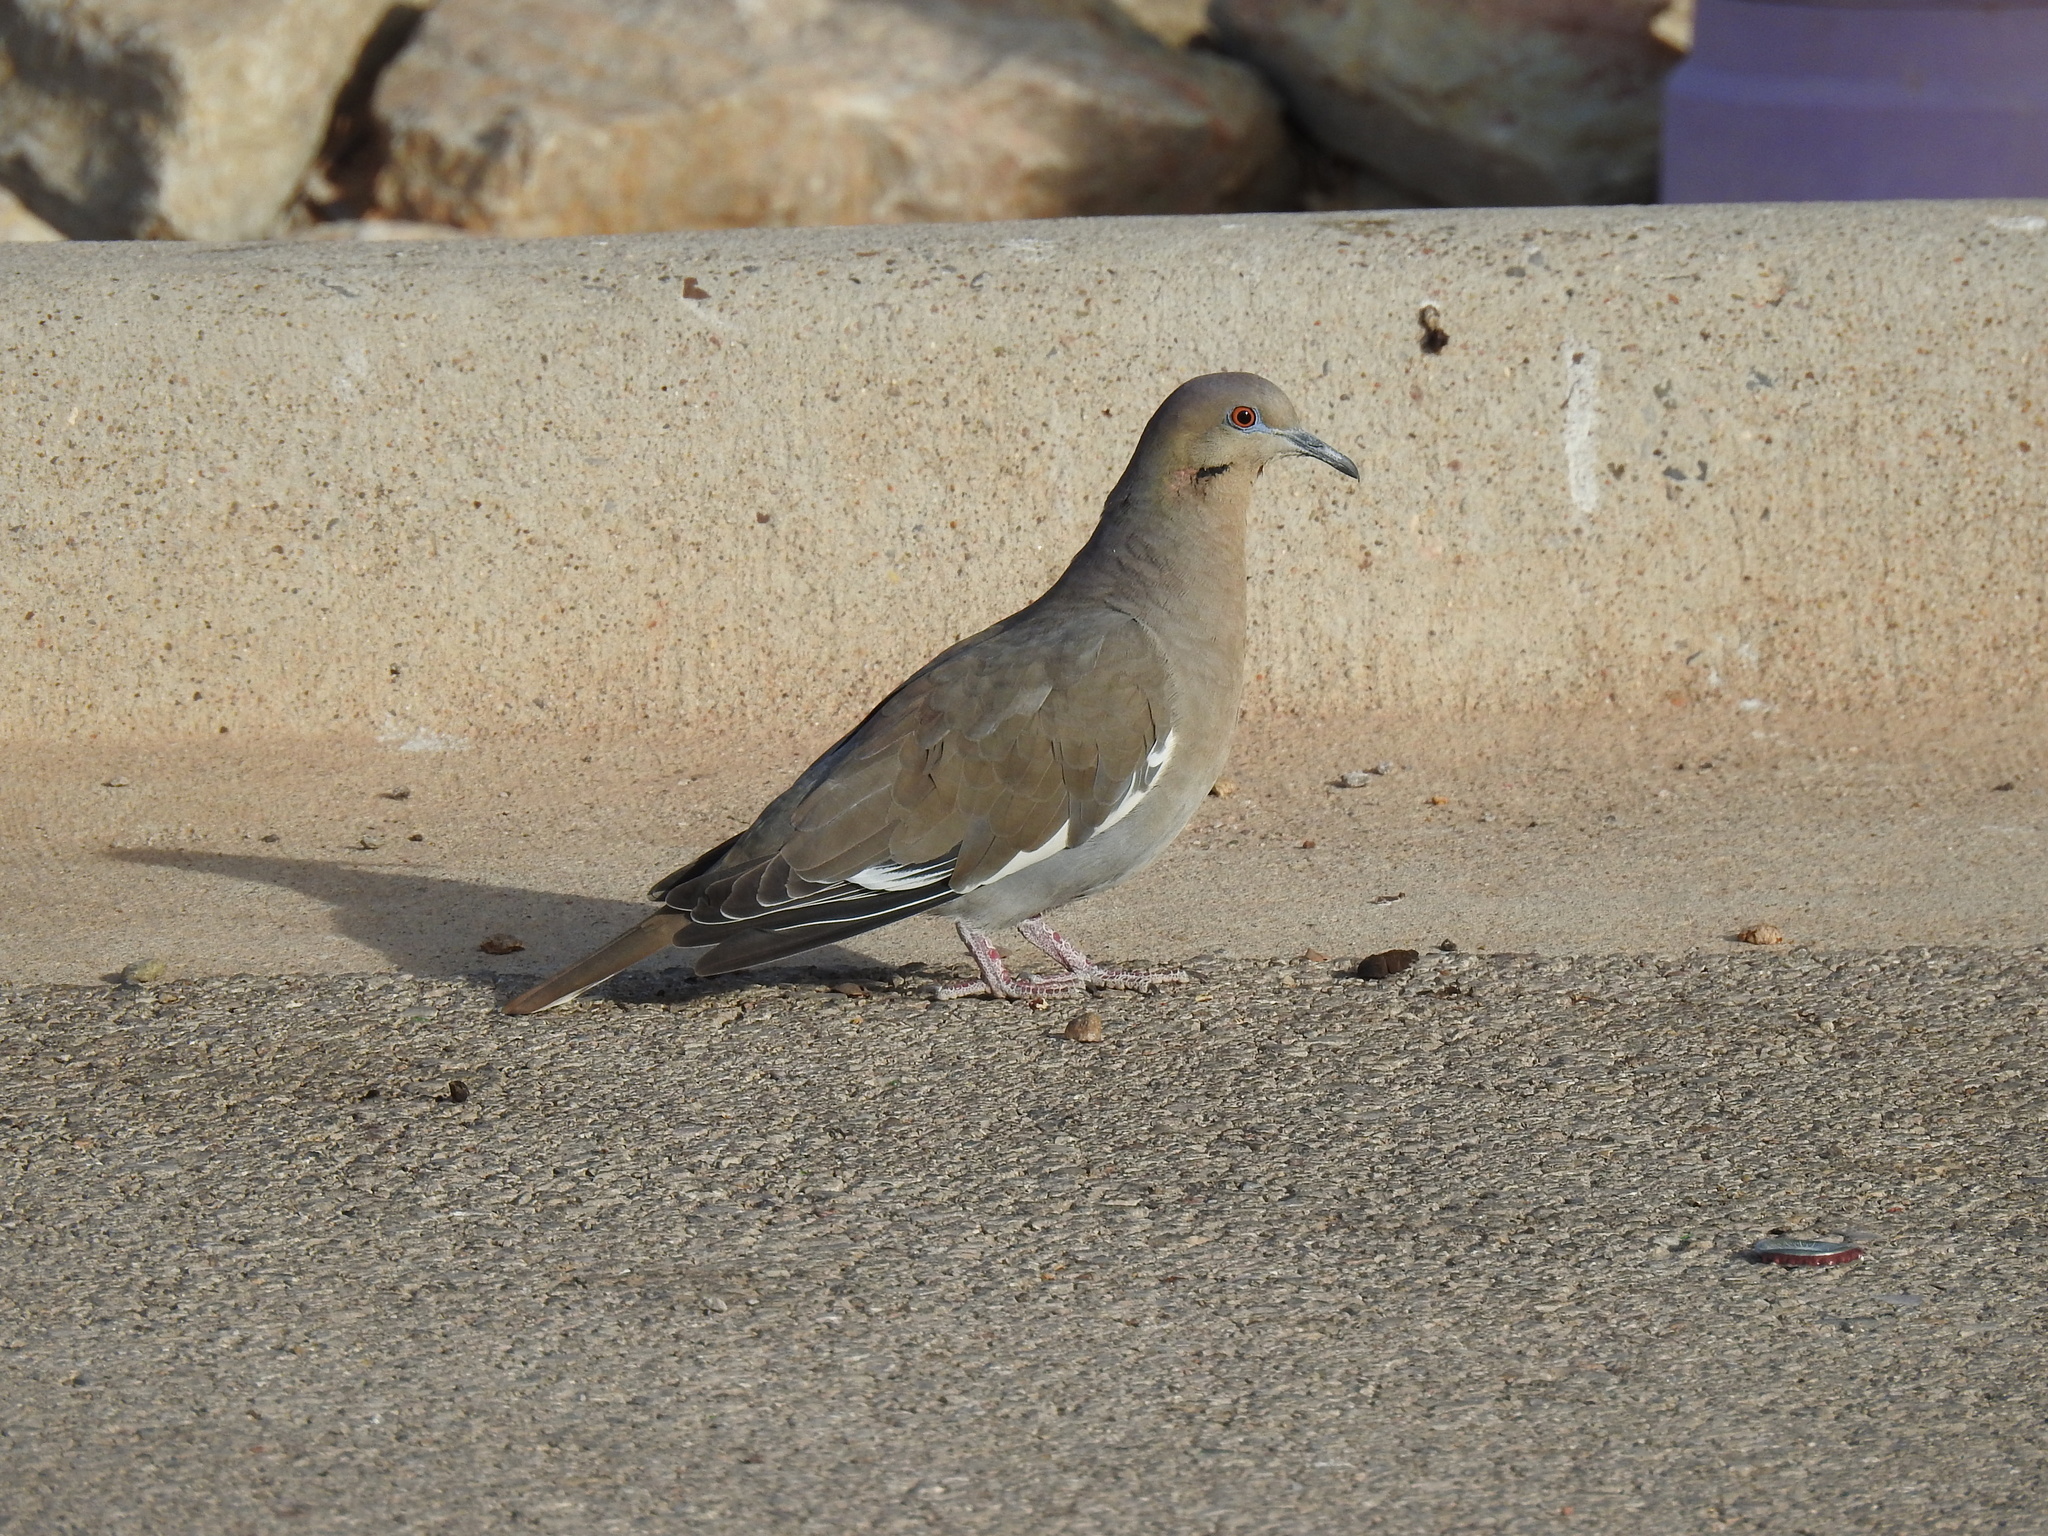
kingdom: Animalia
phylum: Chordata
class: Aves
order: Columbiformes
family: Columbidae
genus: Zenaida
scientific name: Zenaida asiatica
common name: White-winged dove
